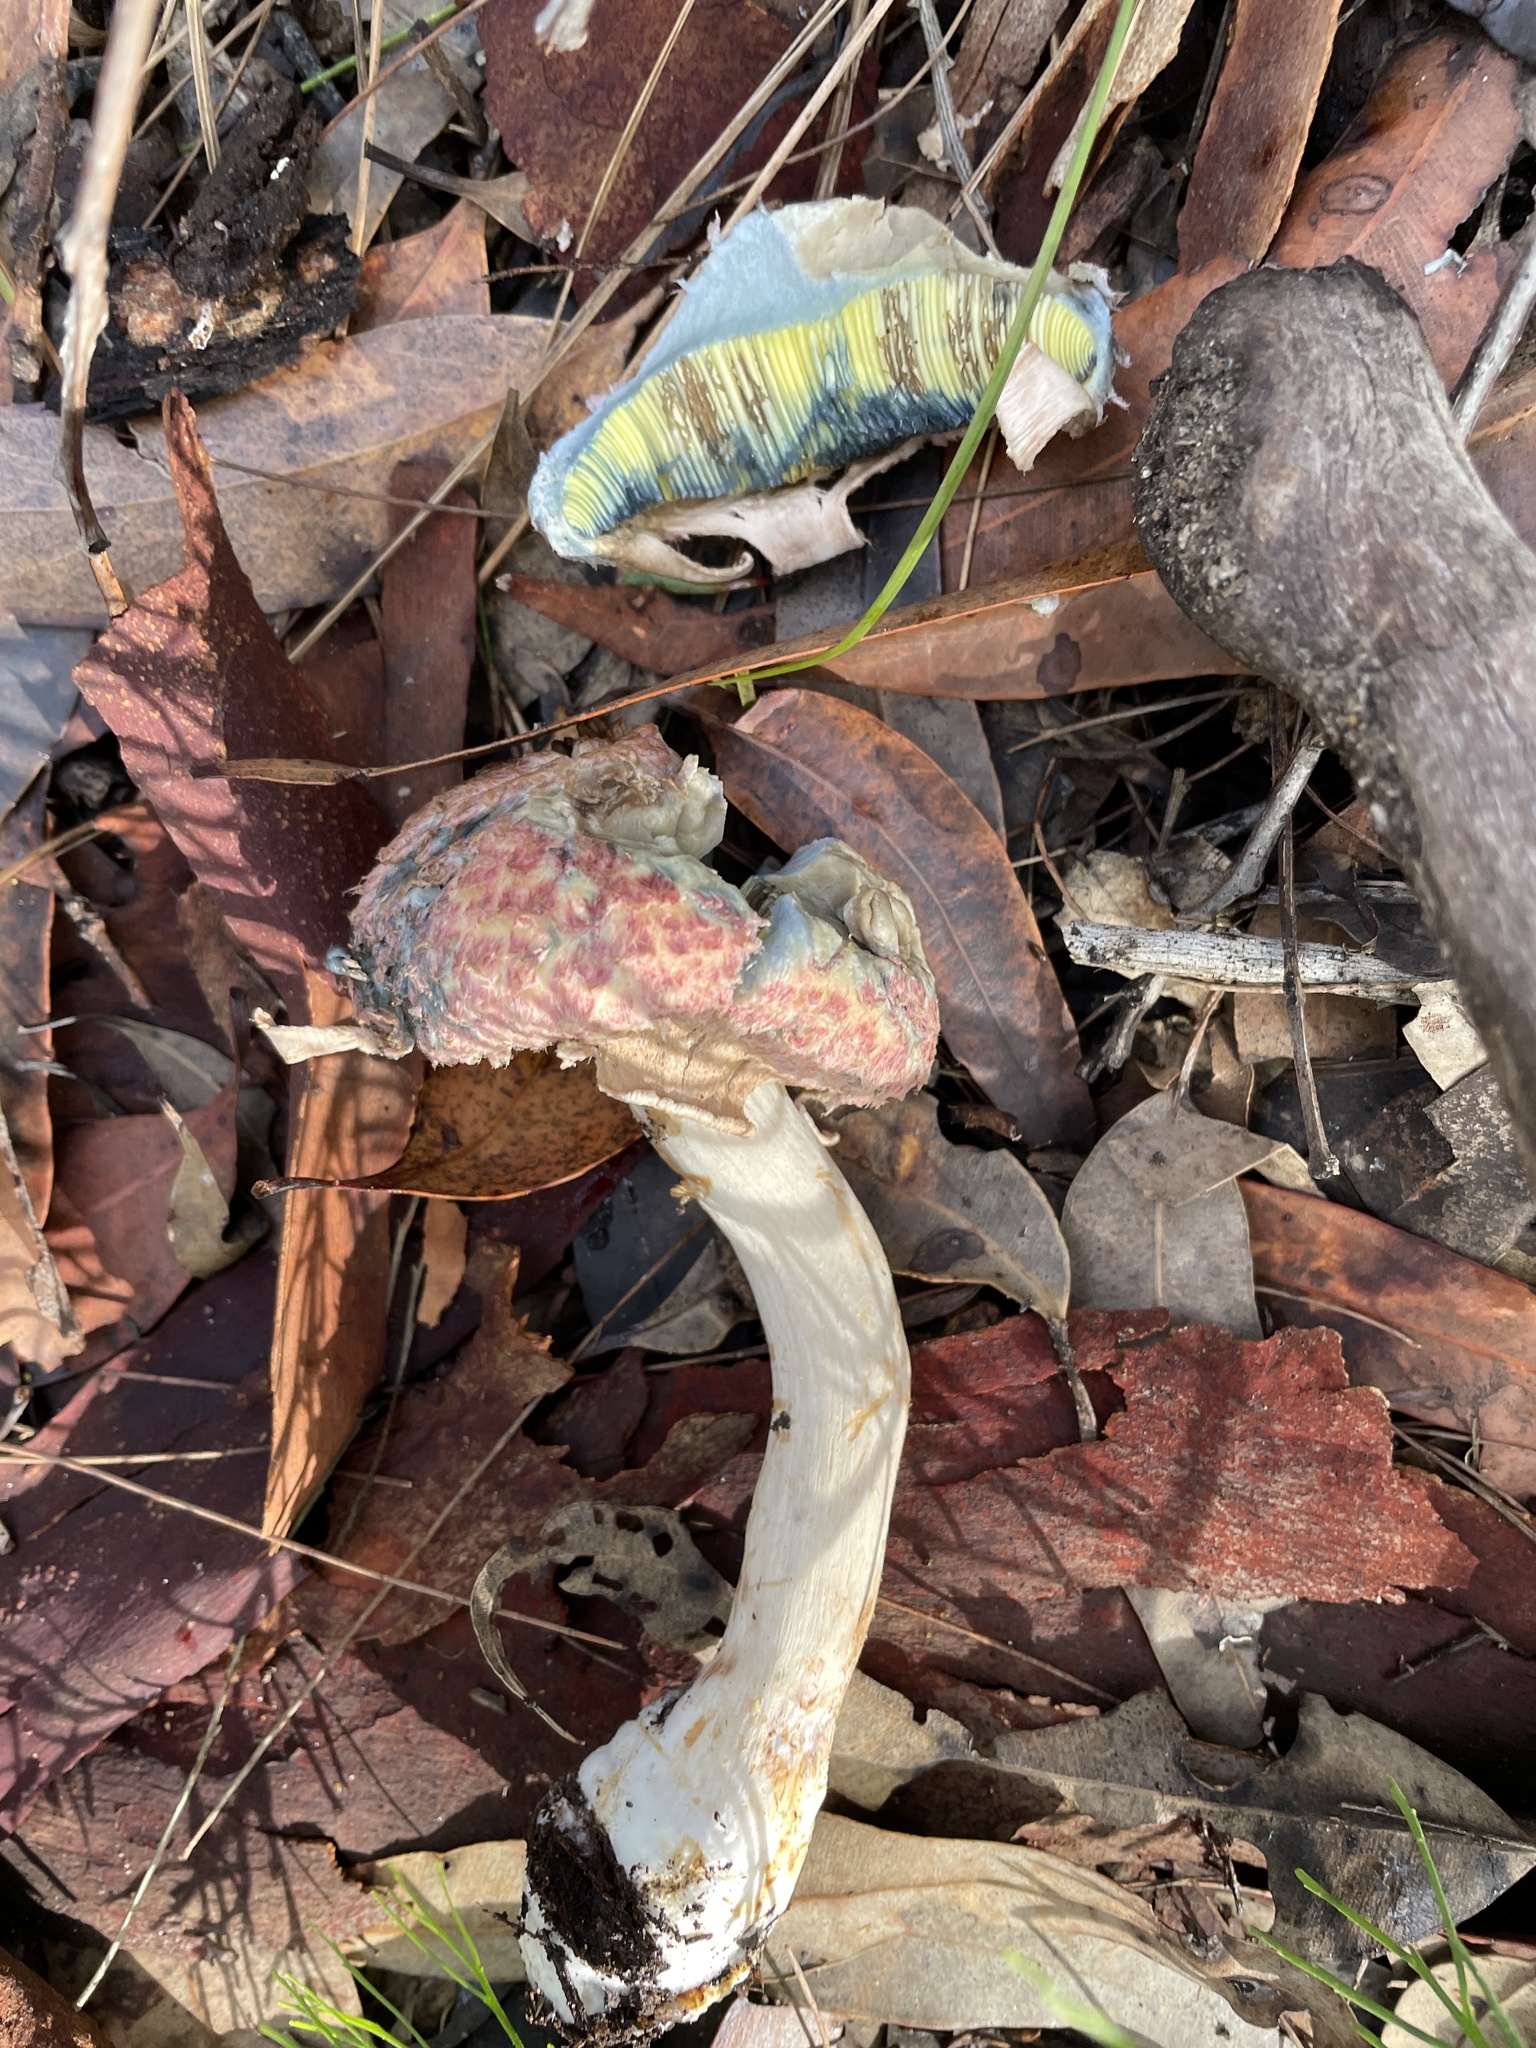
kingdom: Fungi
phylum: Basidiomycota
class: Agaricomycetes
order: Boletales
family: Boletaceae
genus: Strobilomyces
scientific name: Strobilomyces ananiceps
